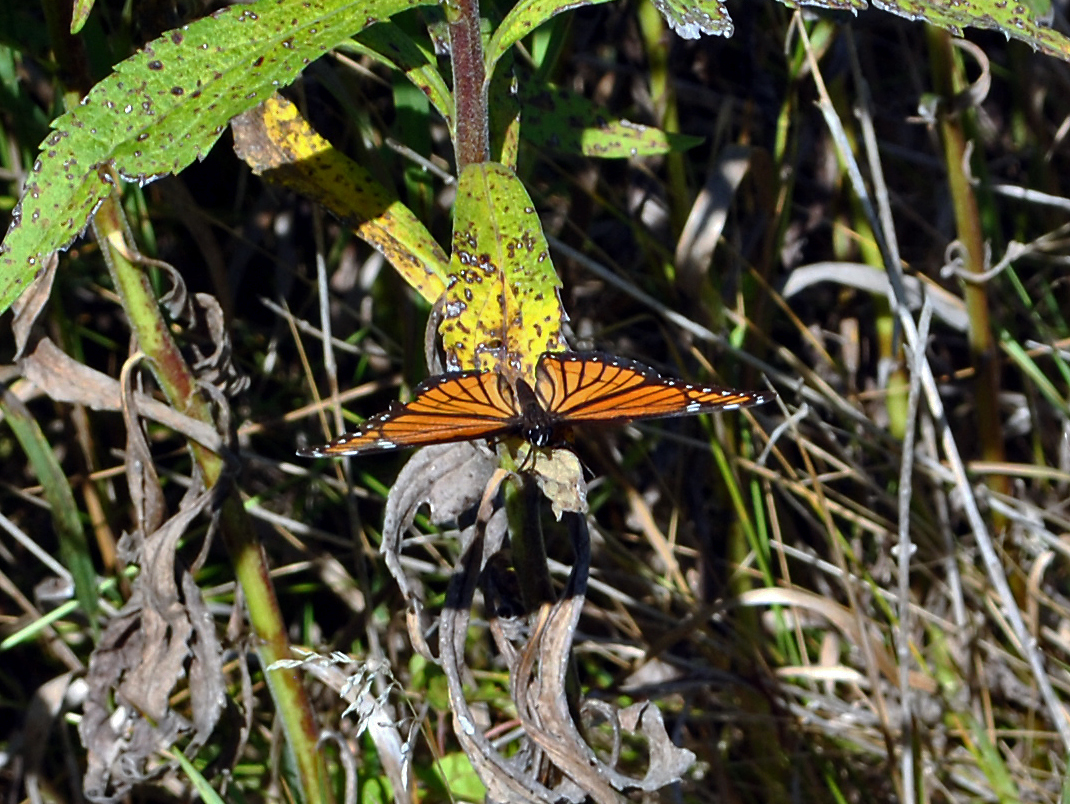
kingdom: Animalia
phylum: Arthropoda
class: Insecta
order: Lepidoptera
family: Nymphalidae
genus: Limenitis
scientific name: Limenitis archippus
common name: Viceroy
